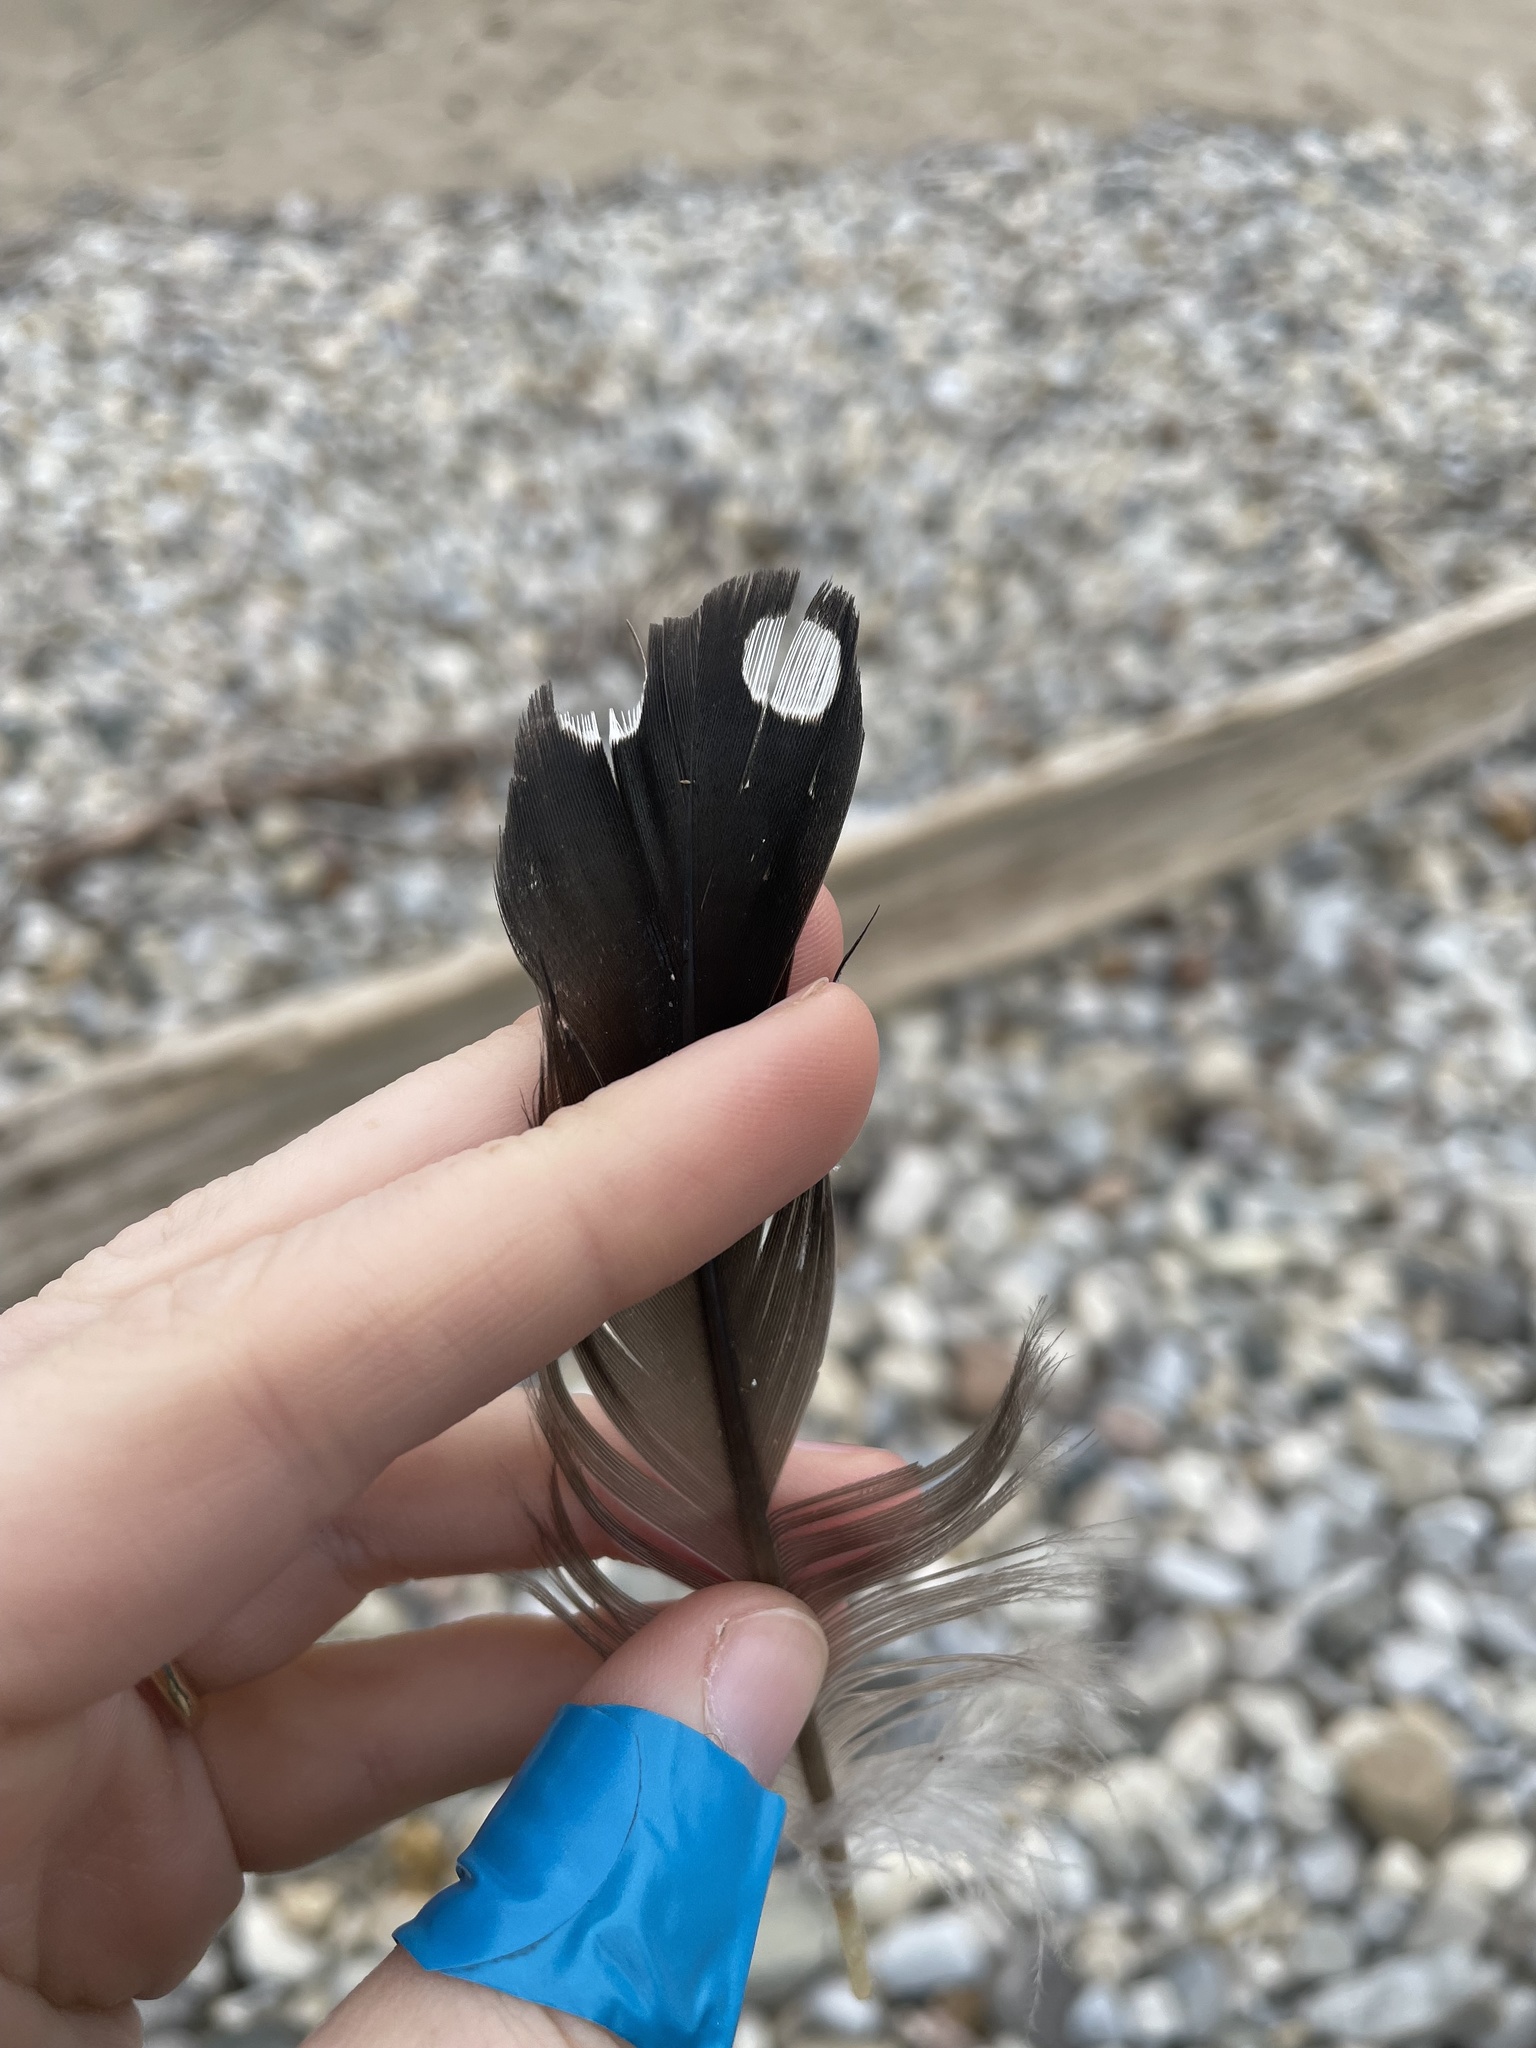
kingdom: Animalia
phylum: Chordata
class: Aves
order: Gaviiformes
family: Gaviidae
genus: Gavia
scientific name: Gavia immer
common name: Common loon
